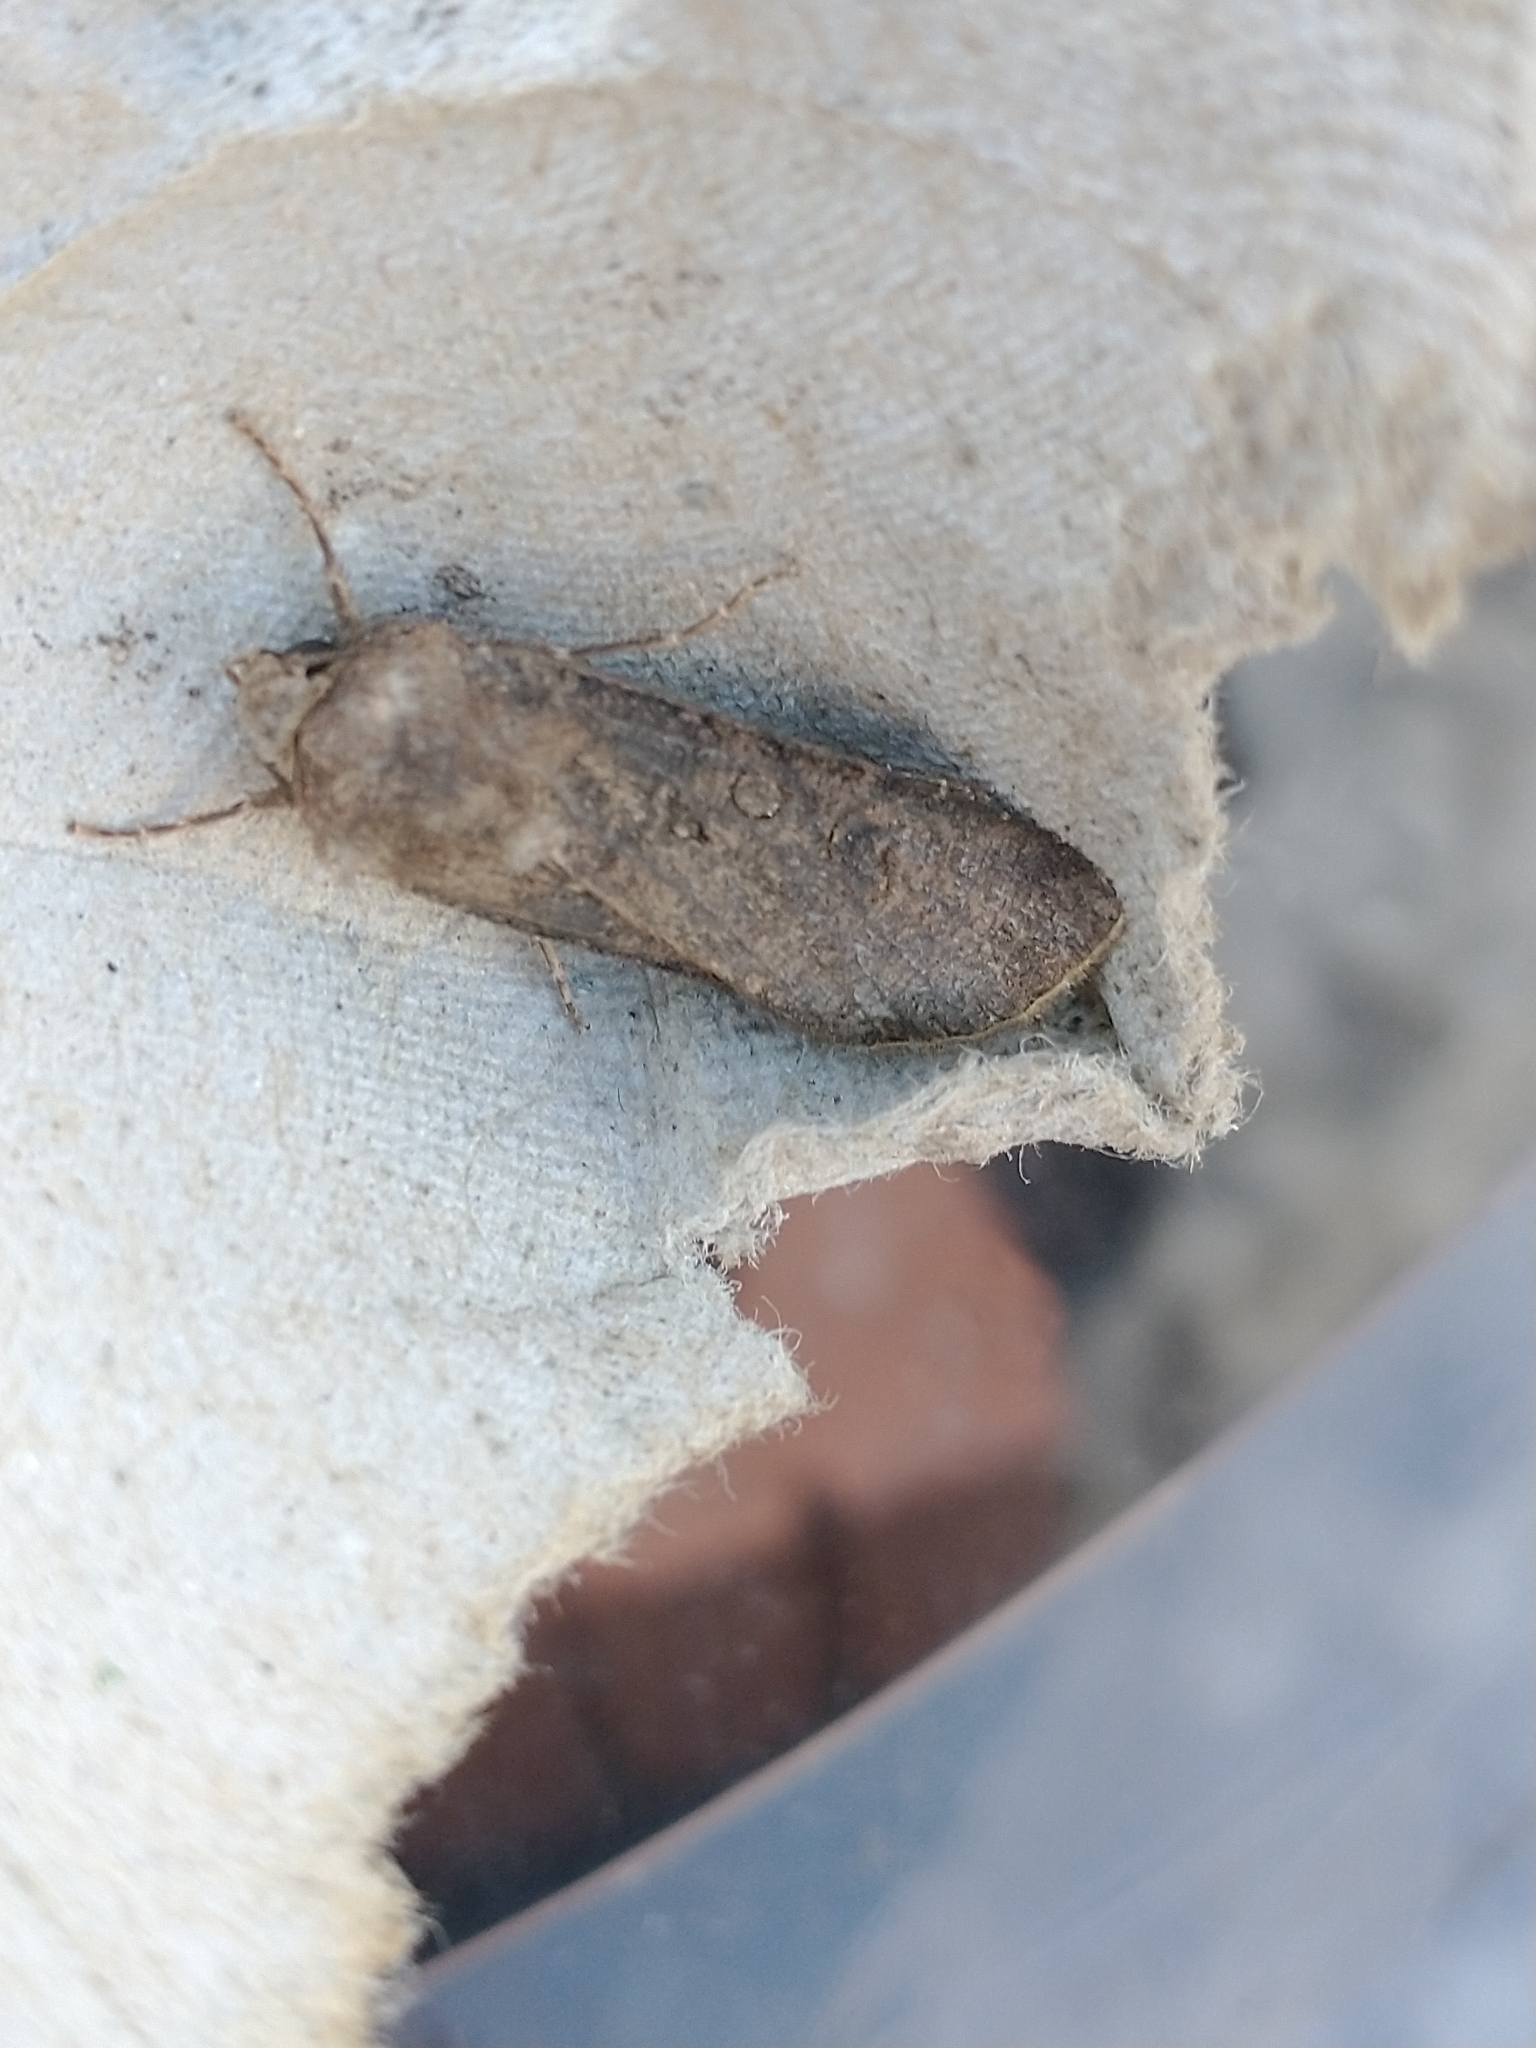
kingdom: Animalia
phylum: Arthropoda
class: Insecta
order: Lepidoptera
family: Noctuidae
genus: Agrotis
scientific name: Agrotis segetum
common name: Turnip moth
